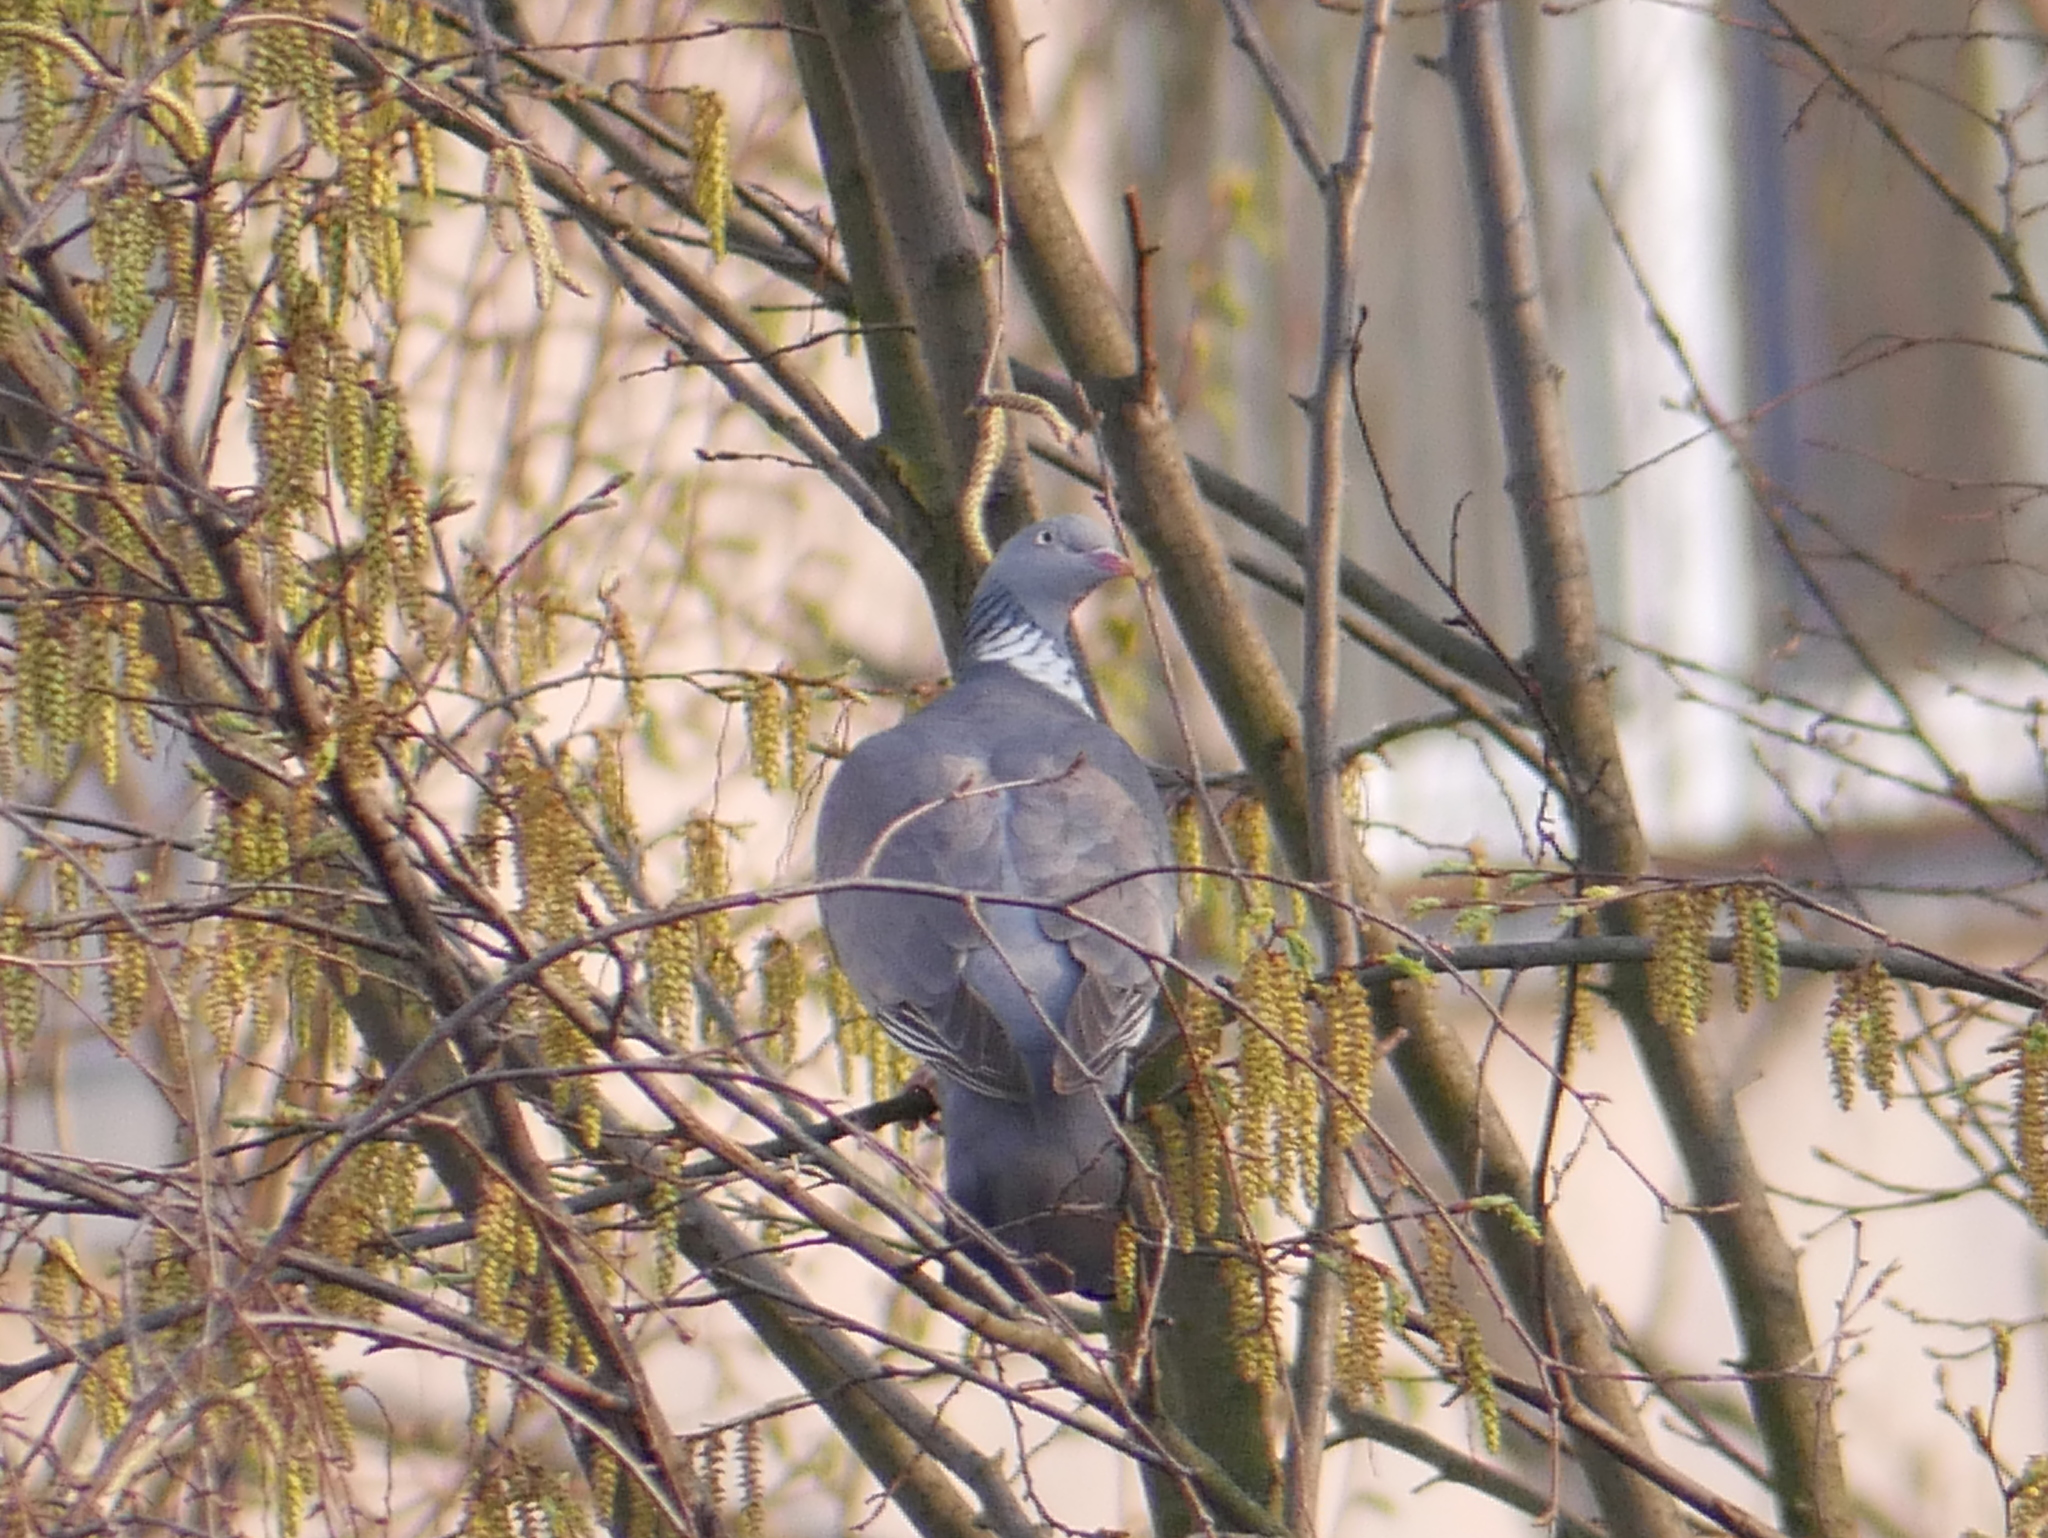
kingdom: Animalia
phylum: Chordata
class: Aves
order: Columbiformes
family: Columbidae
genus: Columba
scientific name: Columba palumbus
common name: Common wood pigeon
